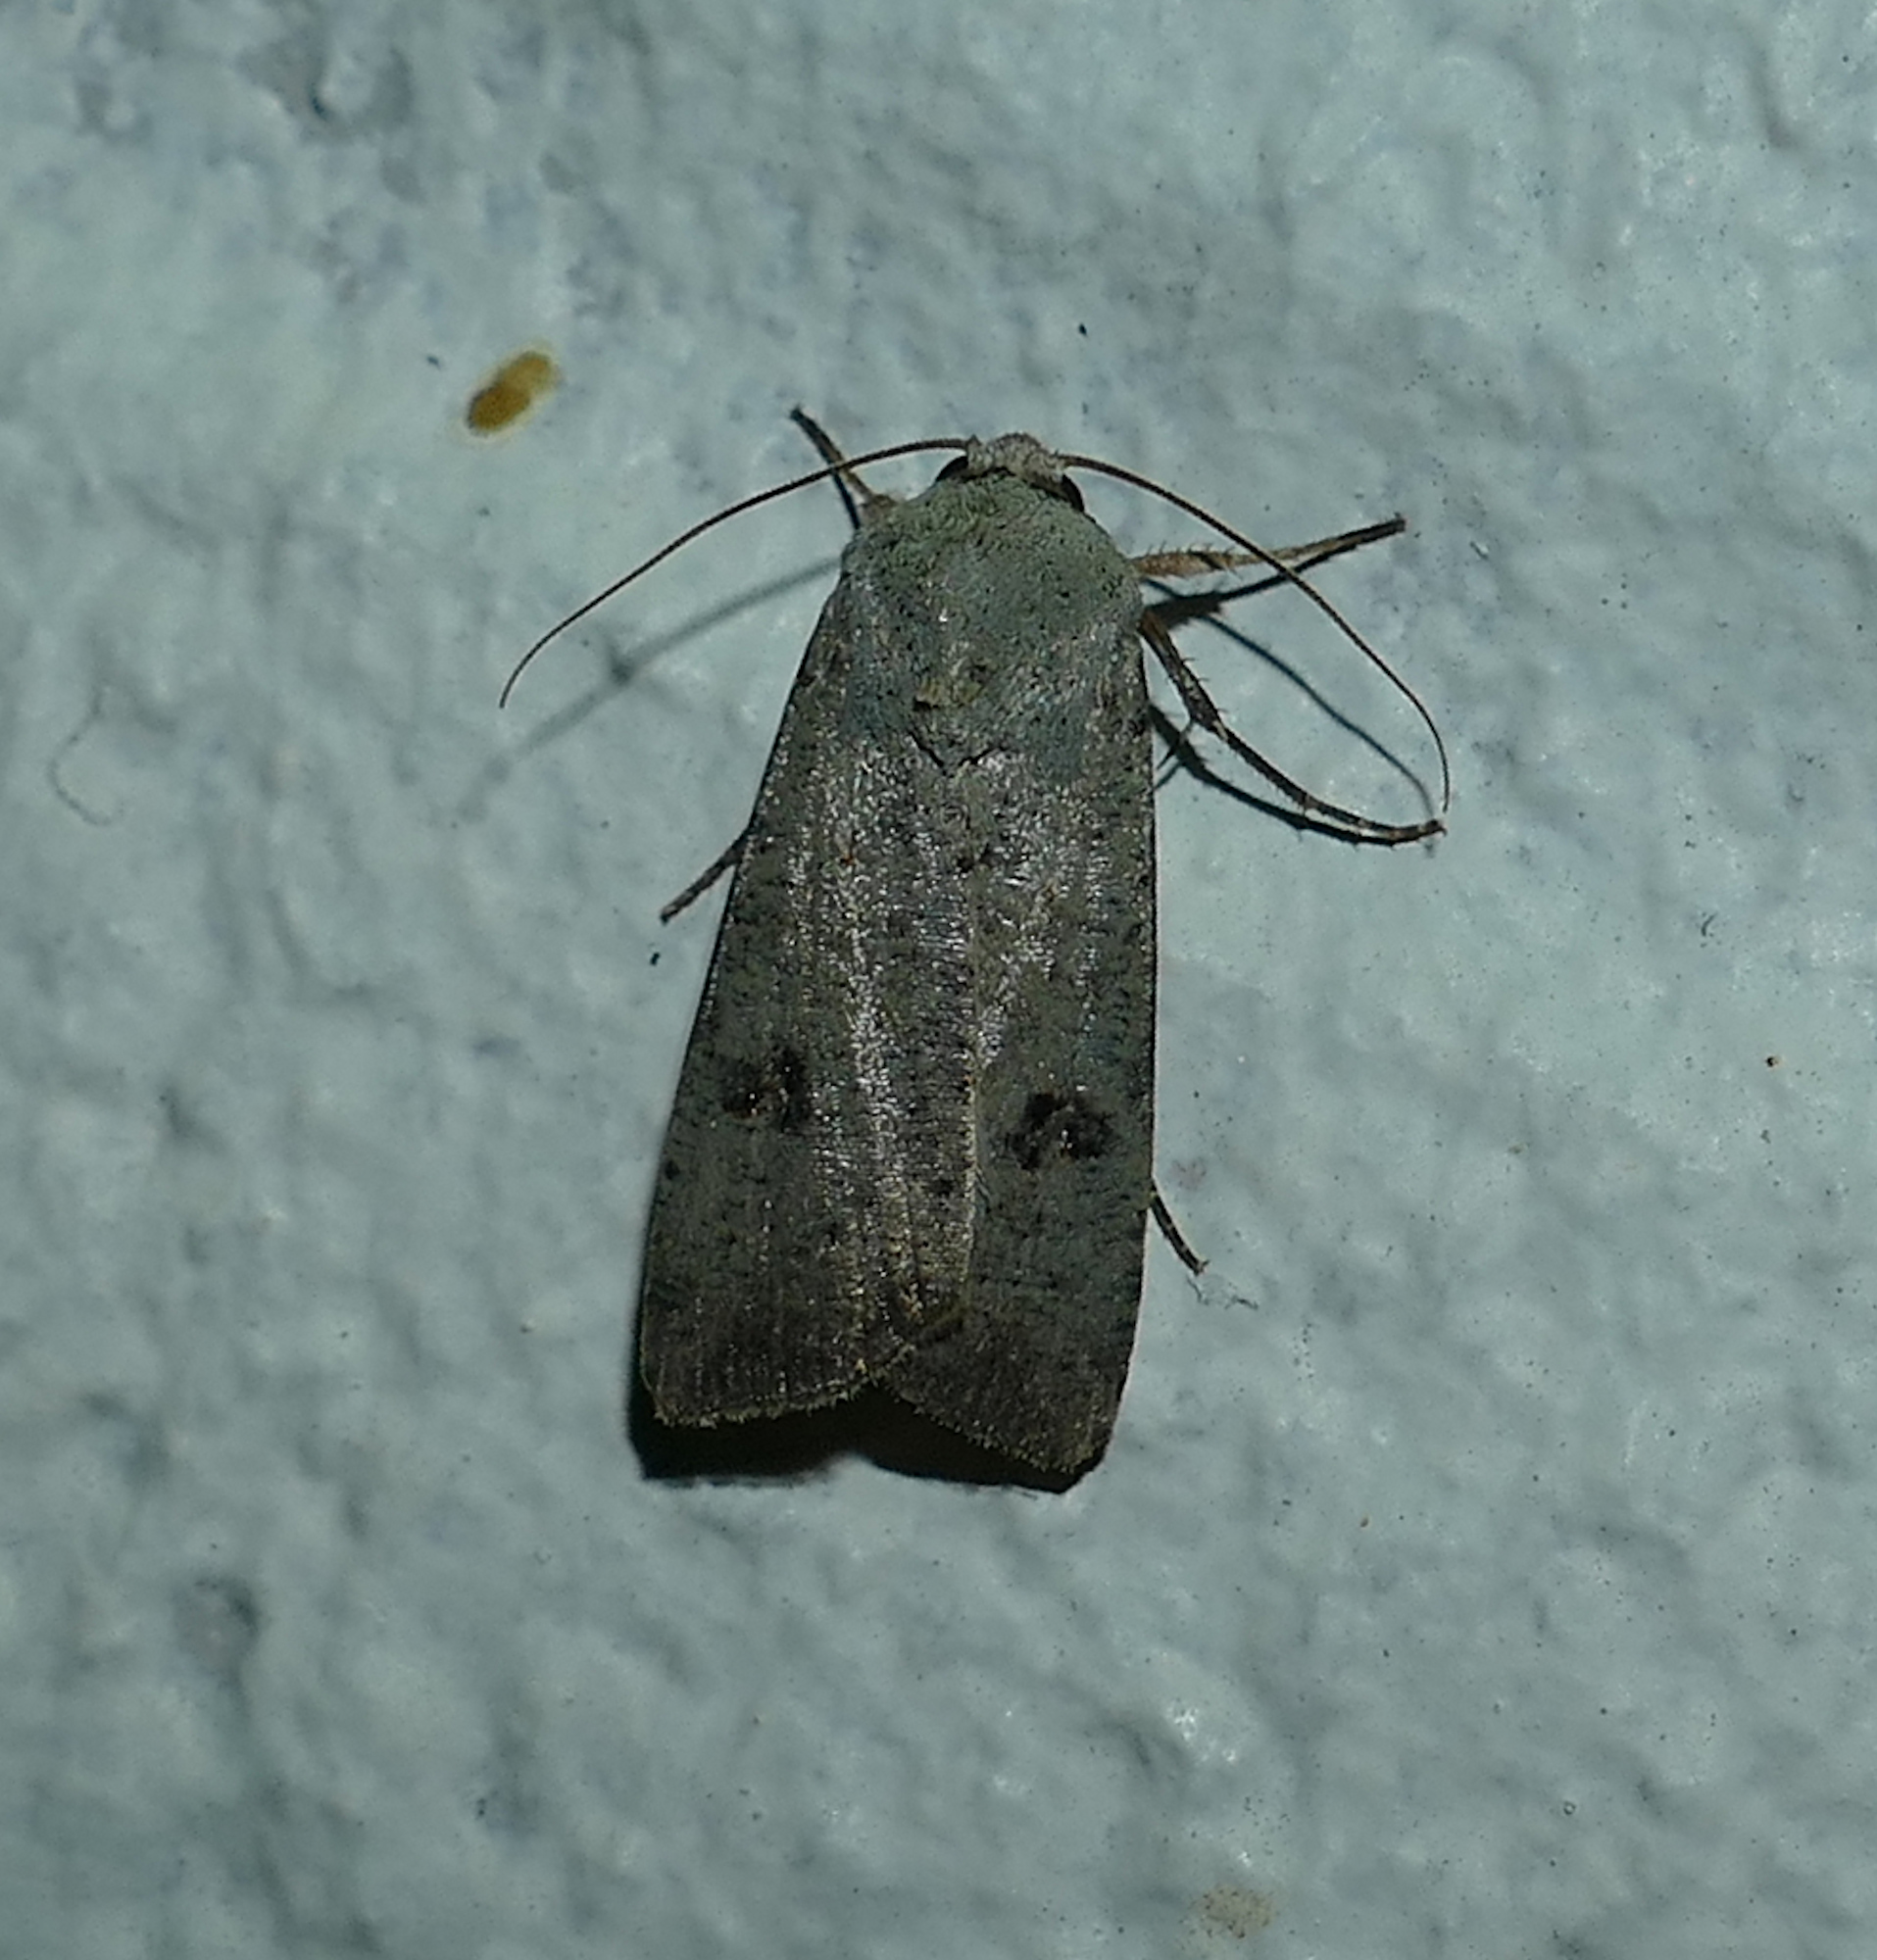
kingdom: Animalia
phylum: Arthropoda
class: Insecta
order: Lepidoptera
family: Noctuidae
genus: Anicla
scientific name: Anicla infecta
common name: Green cutworm
